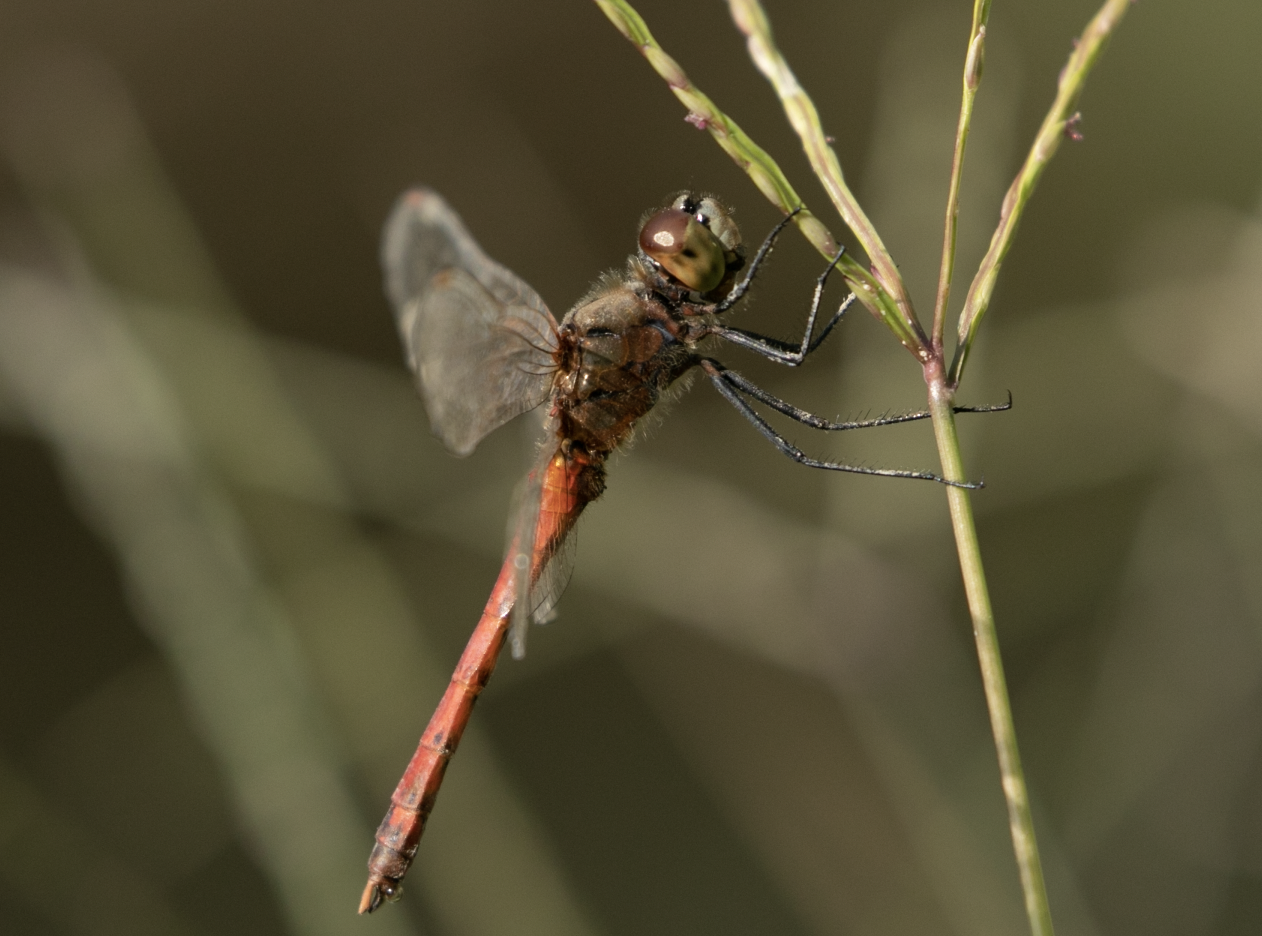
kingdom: Animalia
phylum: Arthropoda
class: Insecta
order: Odonata
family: Libellulidae
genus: Sympetrum
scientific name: Sympetrum depressiusculum
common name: Spotted darter
